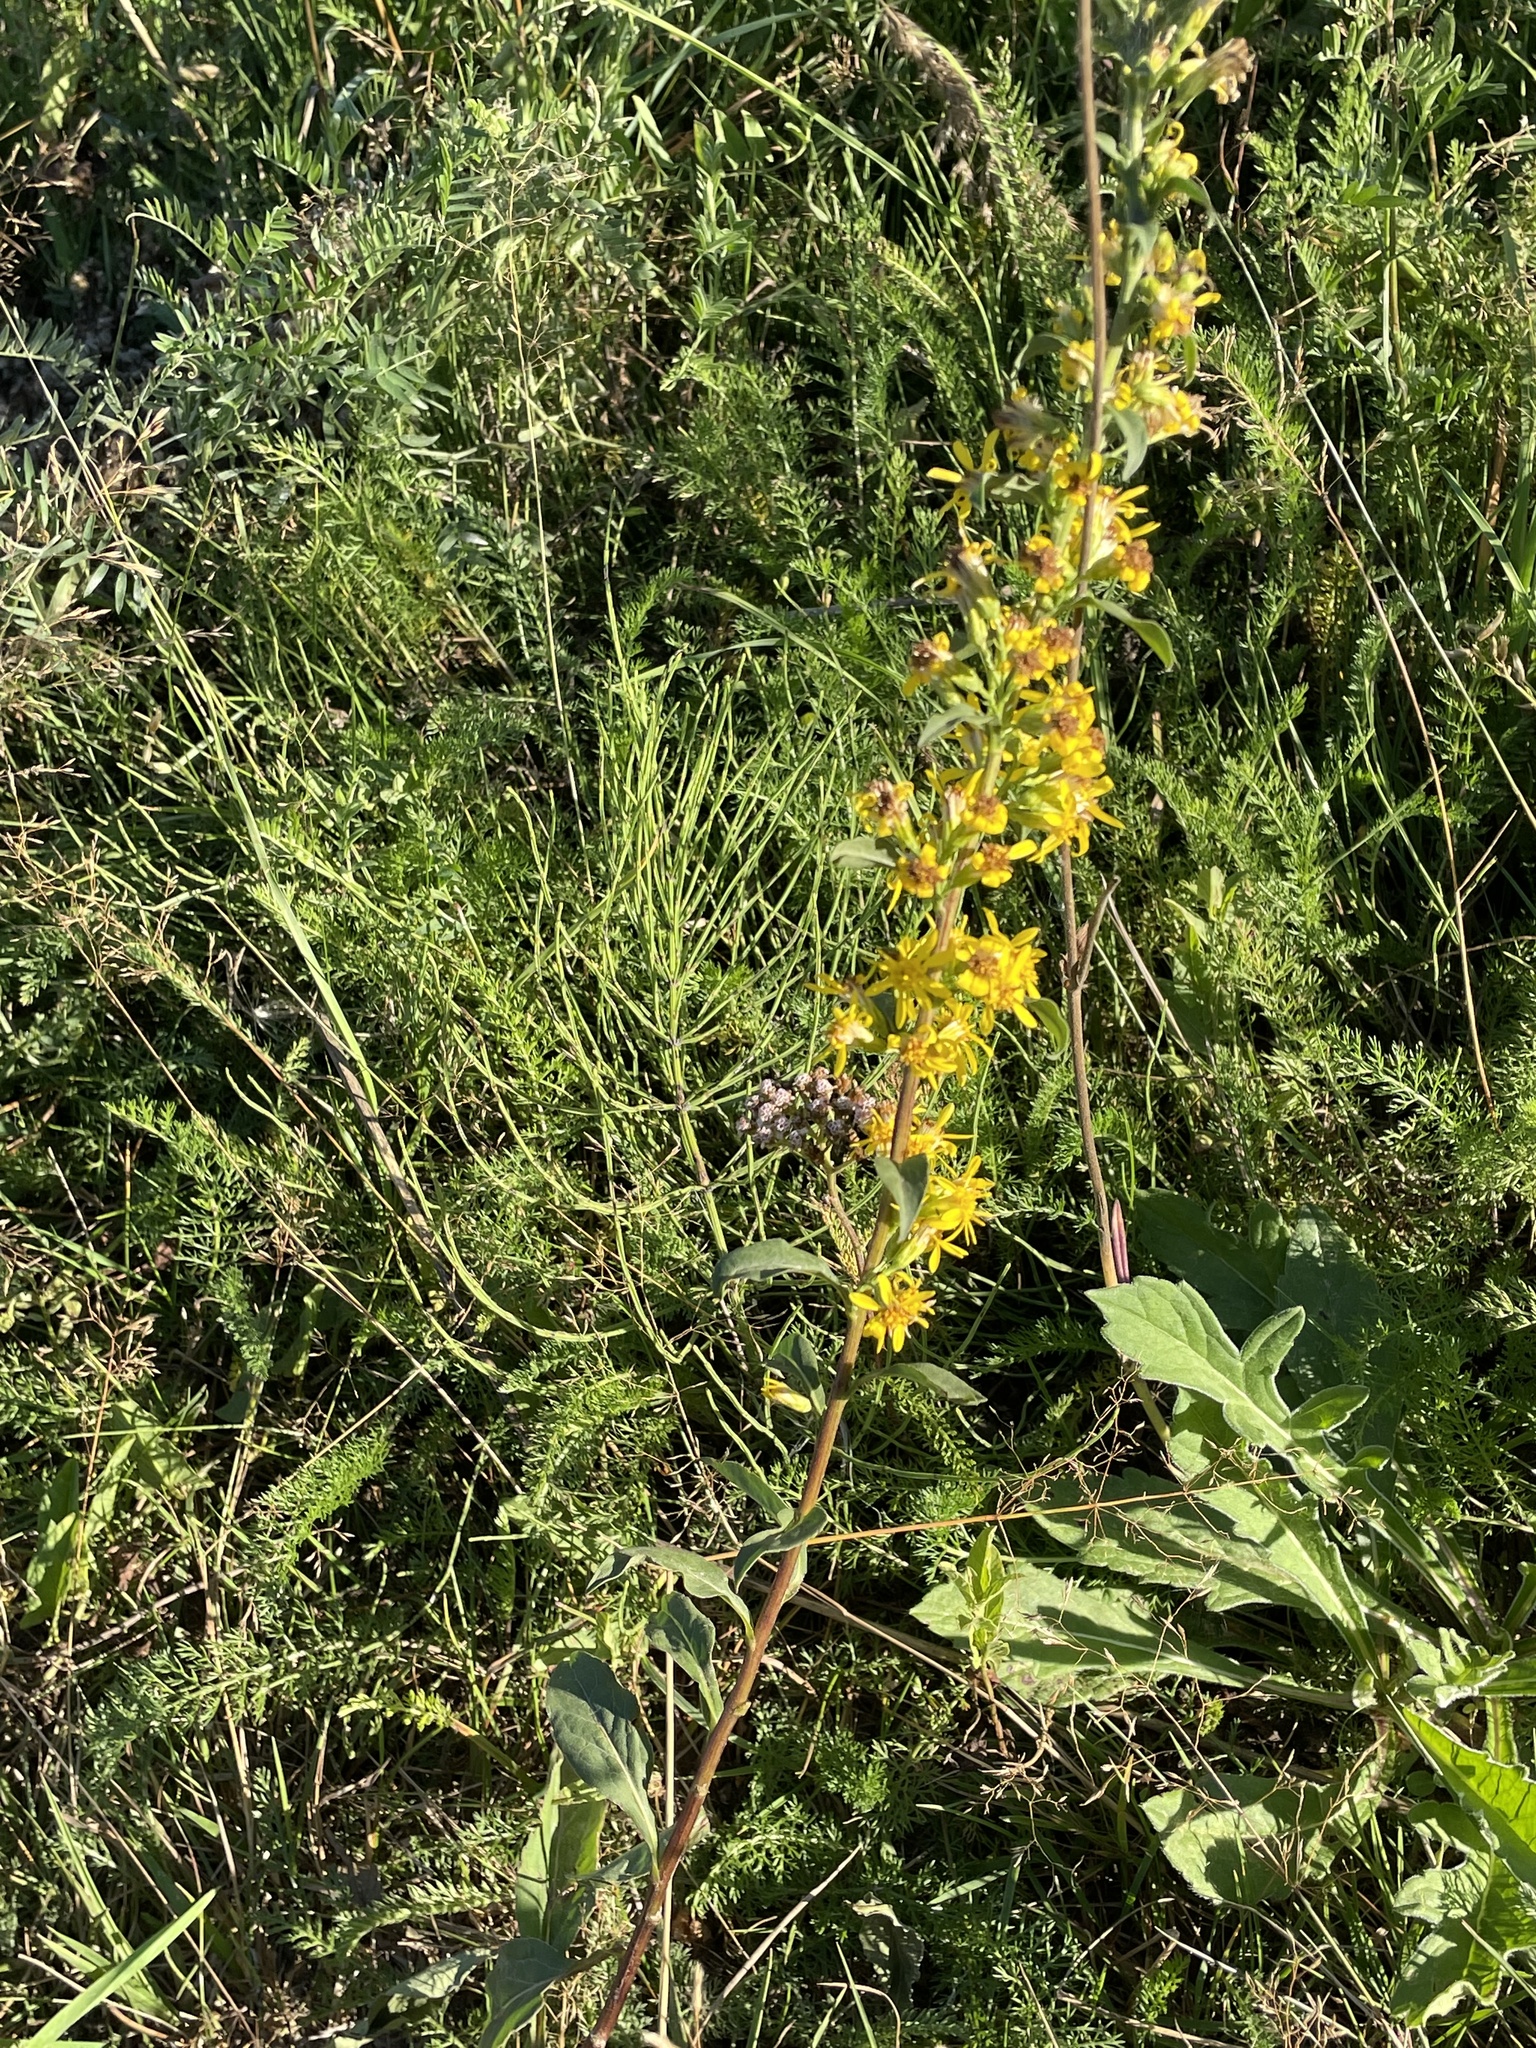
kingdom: Plantae
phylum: Tracheophyta
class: Magnoliopsida
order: Asterales
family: Asteraceae
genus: Solidago
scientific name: Solidago virgaurea
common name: Goldenrod
